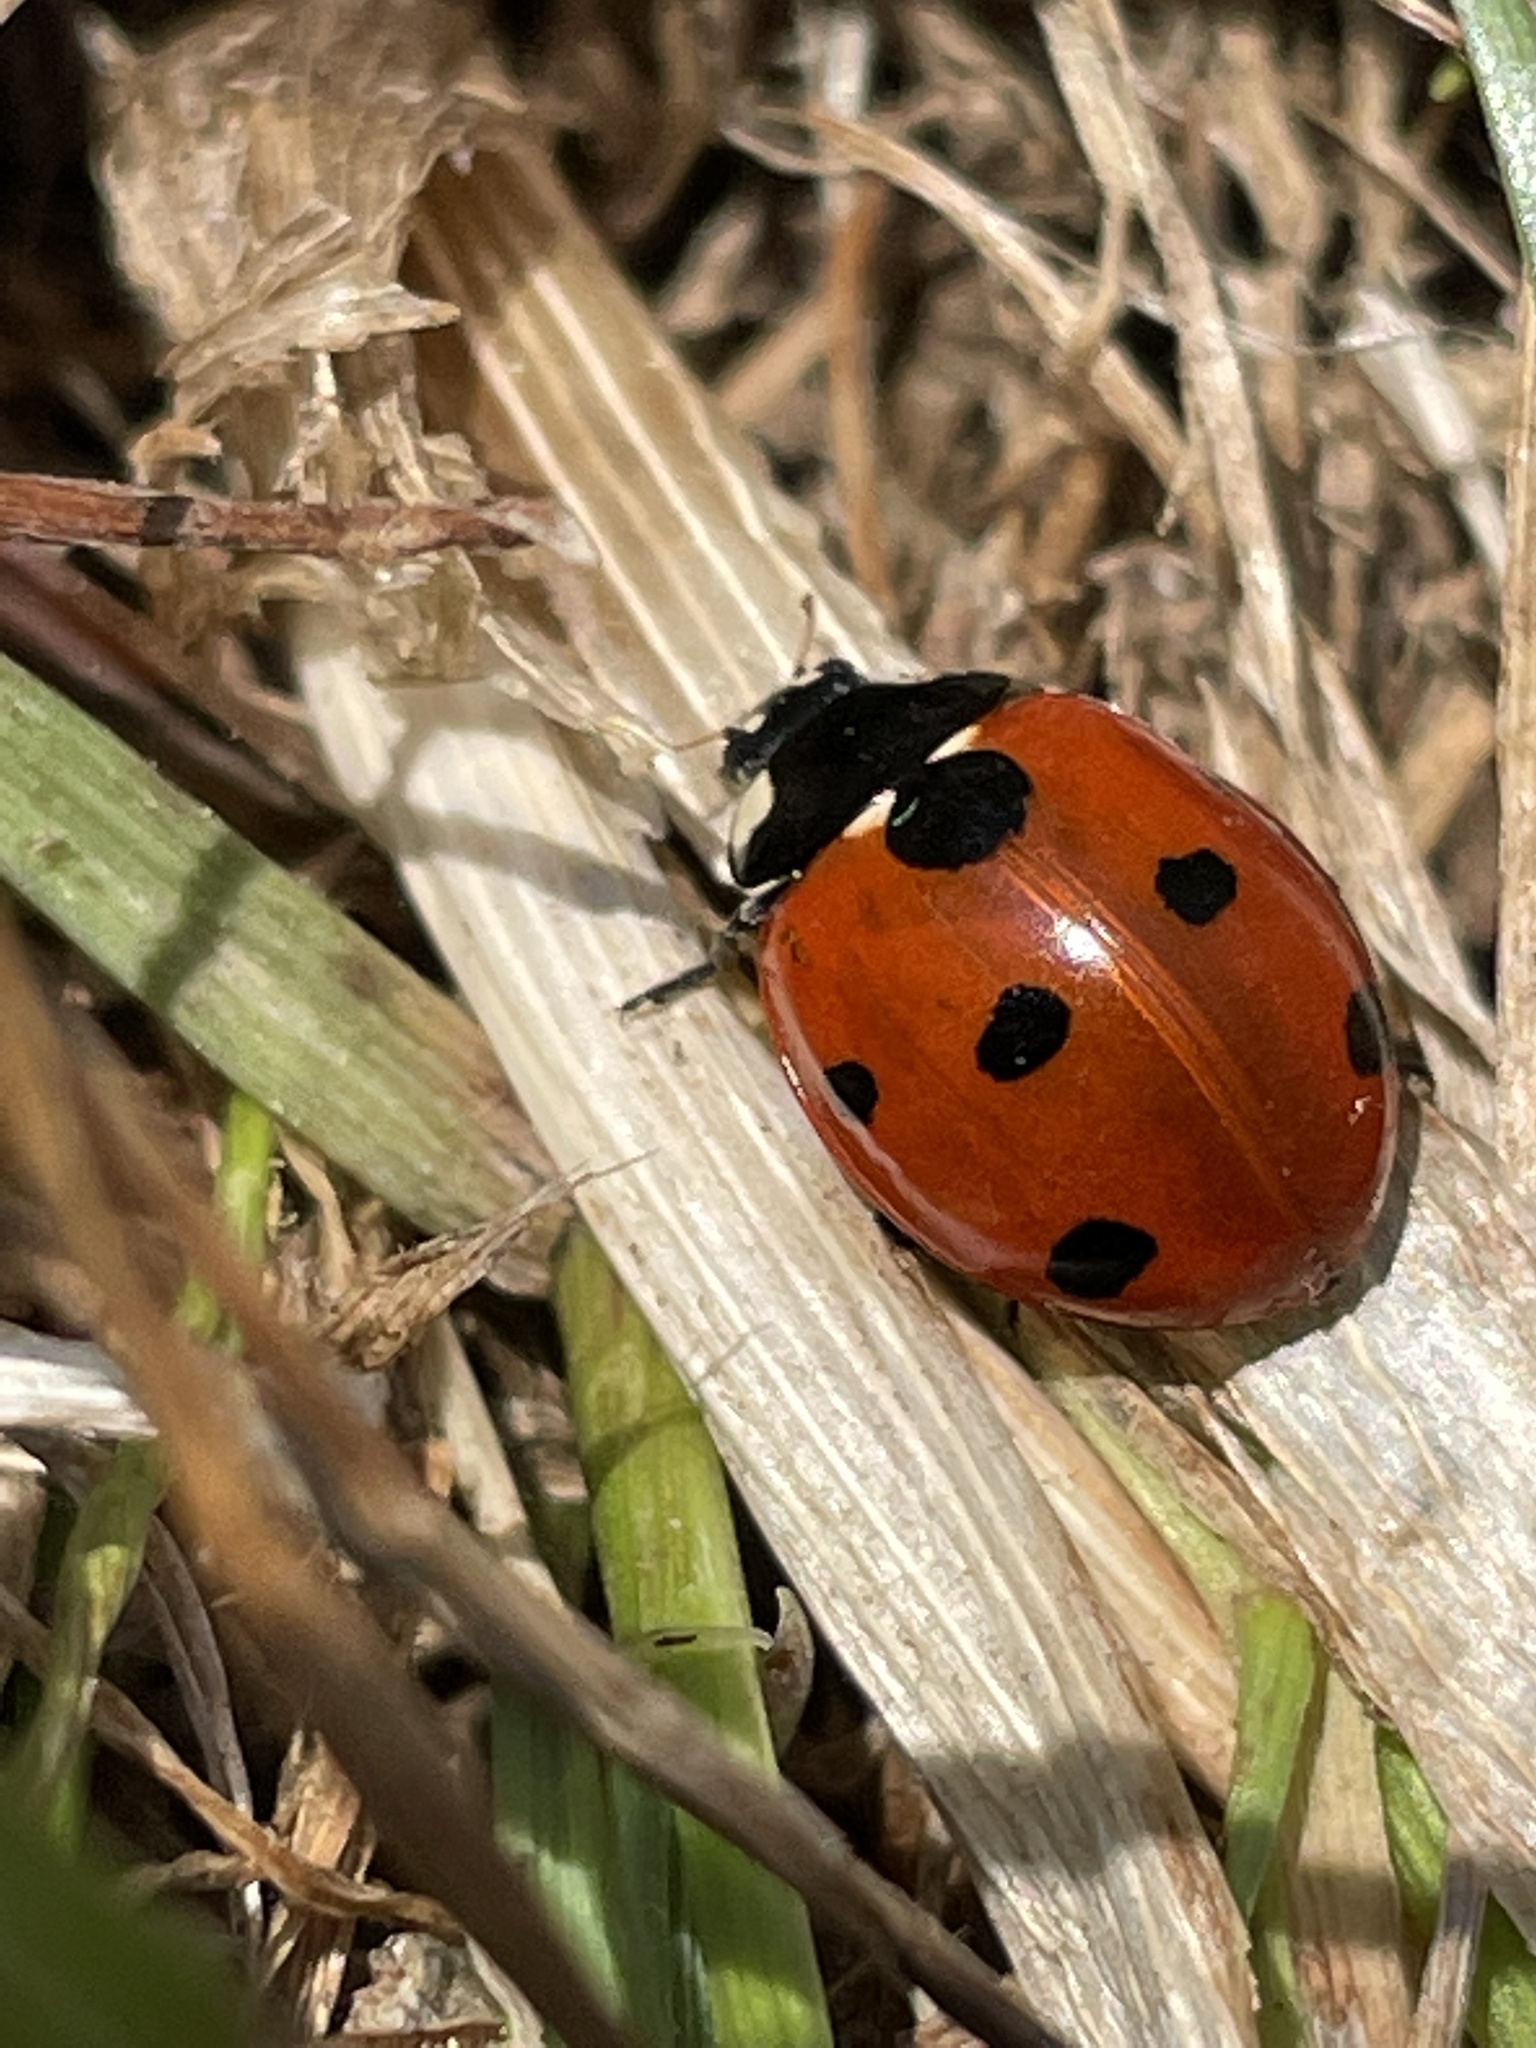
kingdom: Animalia
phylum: Arthropoda
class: Insecta
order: Coleoptera
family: Coccinellidae
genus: Coccinella
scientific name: Coccinella septempunctata
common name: Sevenspotted lady beetle
